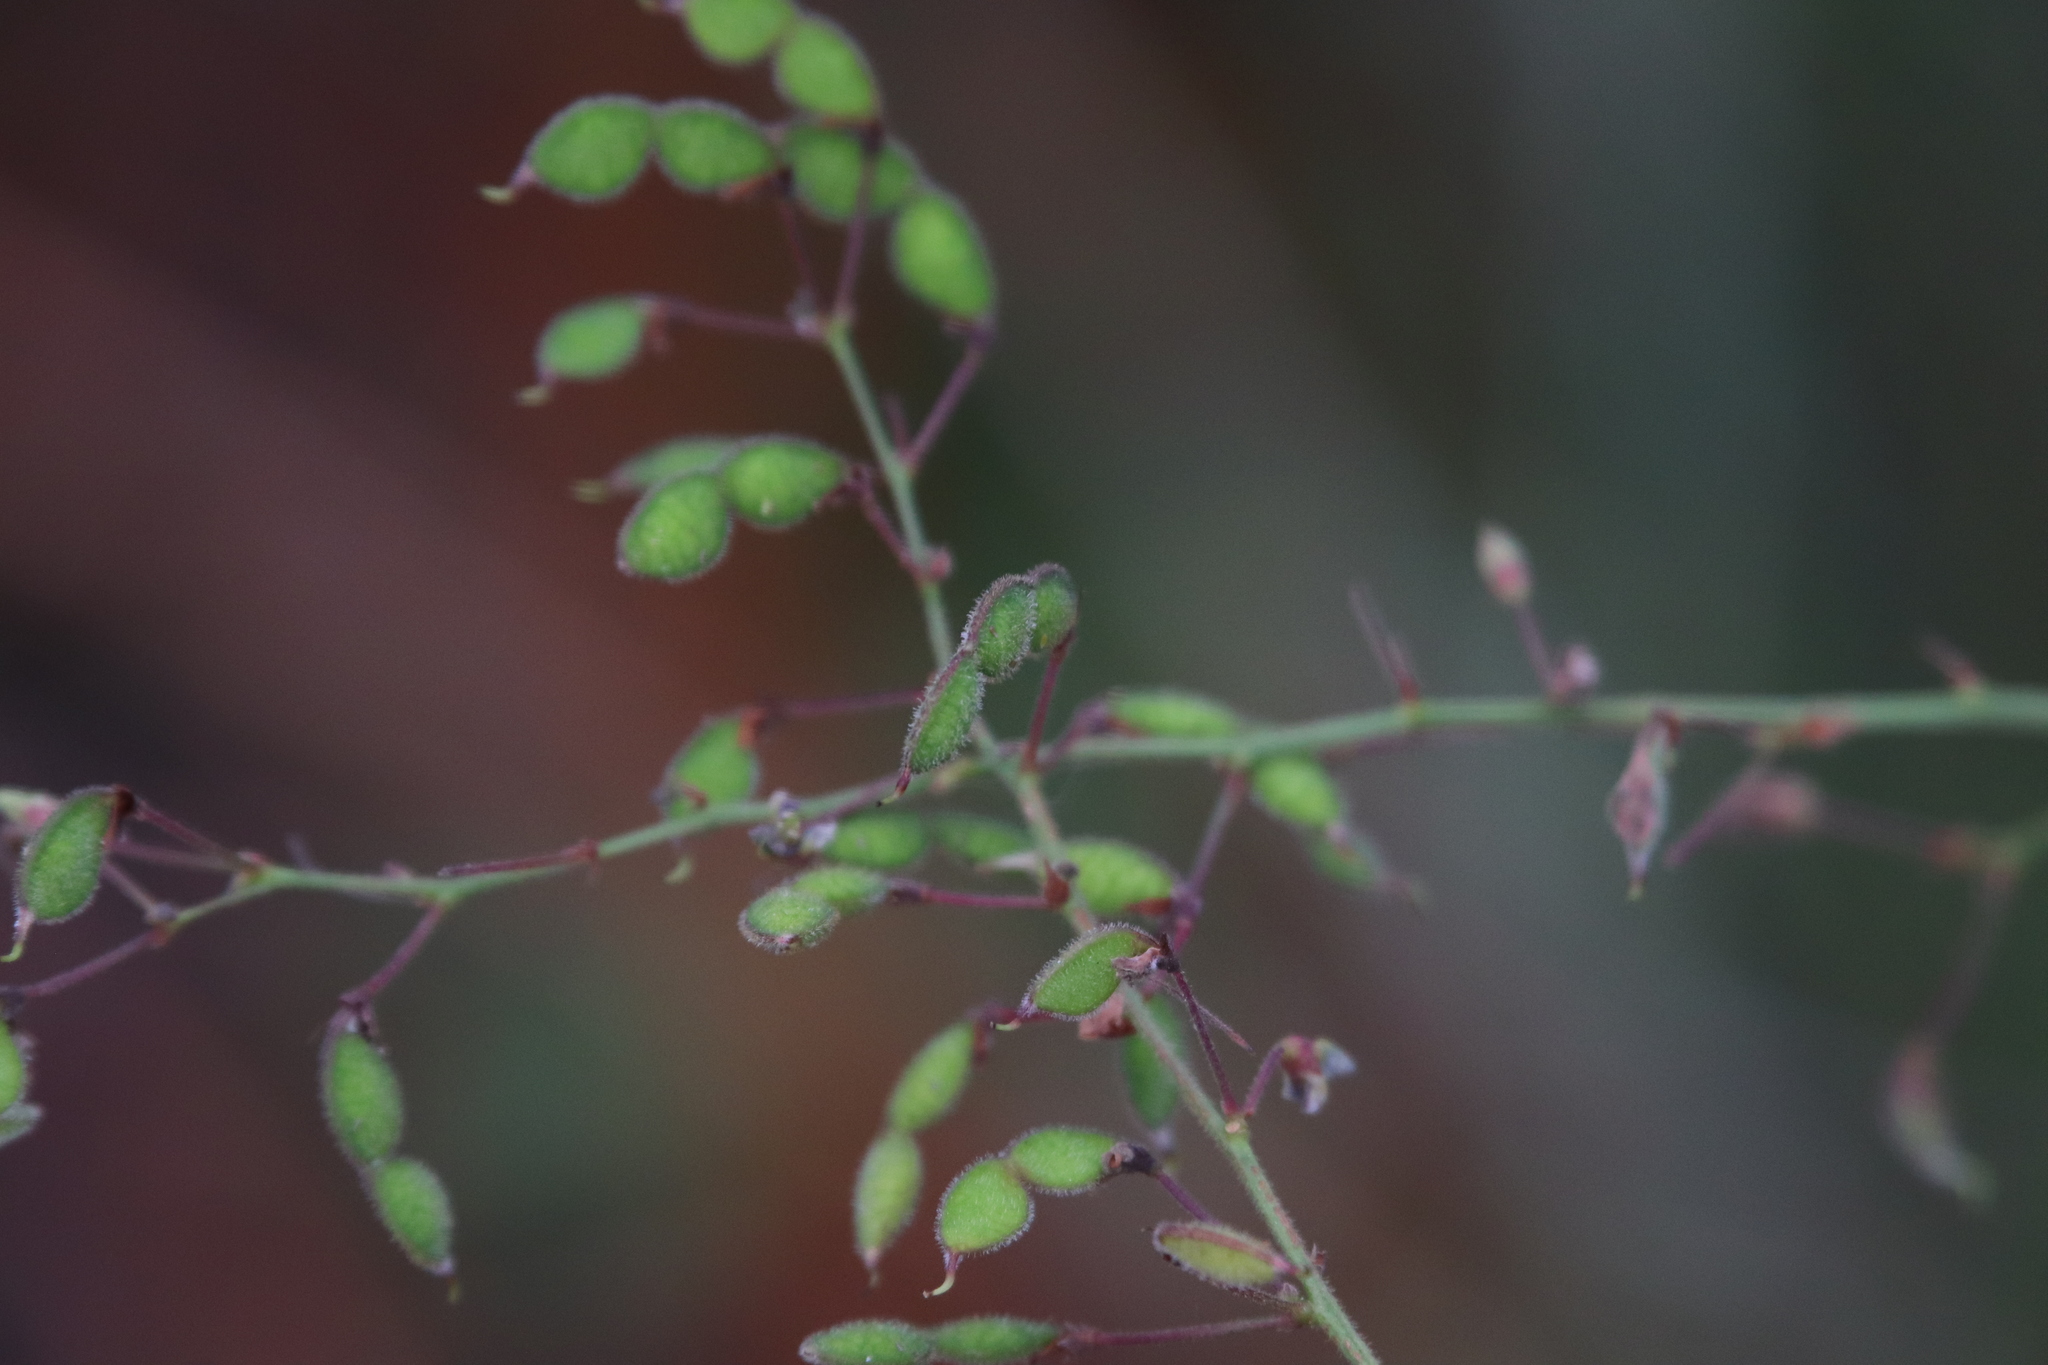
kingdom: Plantae
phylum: Tracheophyta
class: Magnoliopsida
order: Fabales
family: Fabaceae
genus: Desmodium
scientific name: Desmodium ciliare
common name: Hairy small-leaf ticktrefoil
